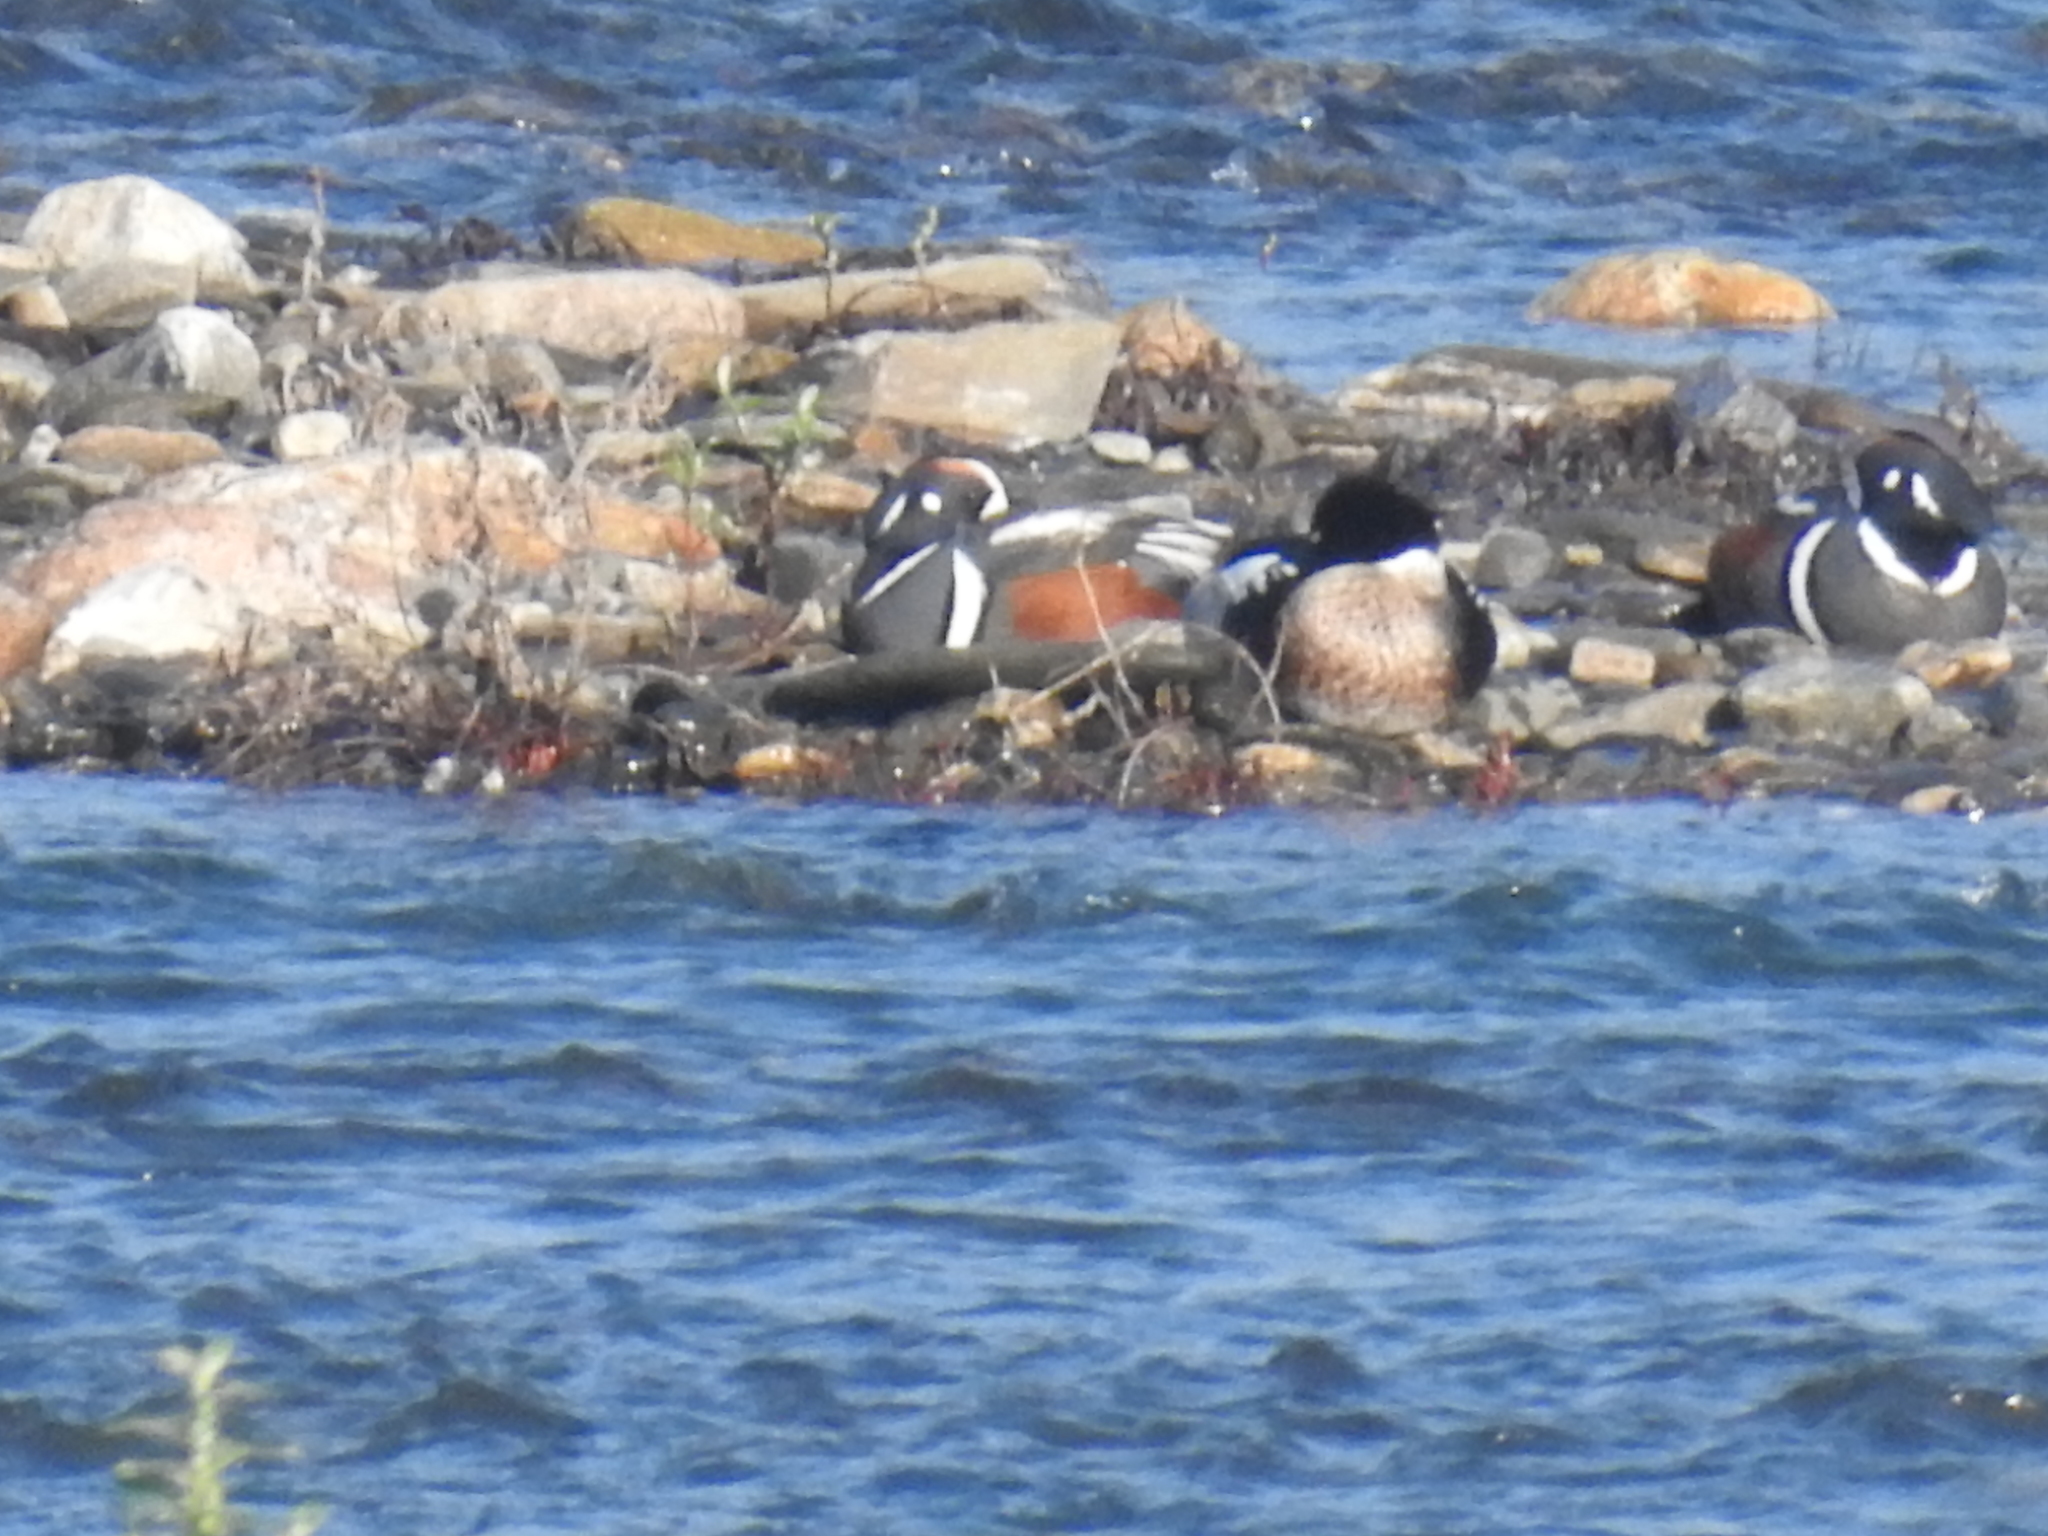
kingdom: Animalia
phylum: Chordata
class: Aves
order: Anseriformes
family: Anatidae
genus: Mergus
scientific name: Mergus serrator
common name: Red-breasted merganser
